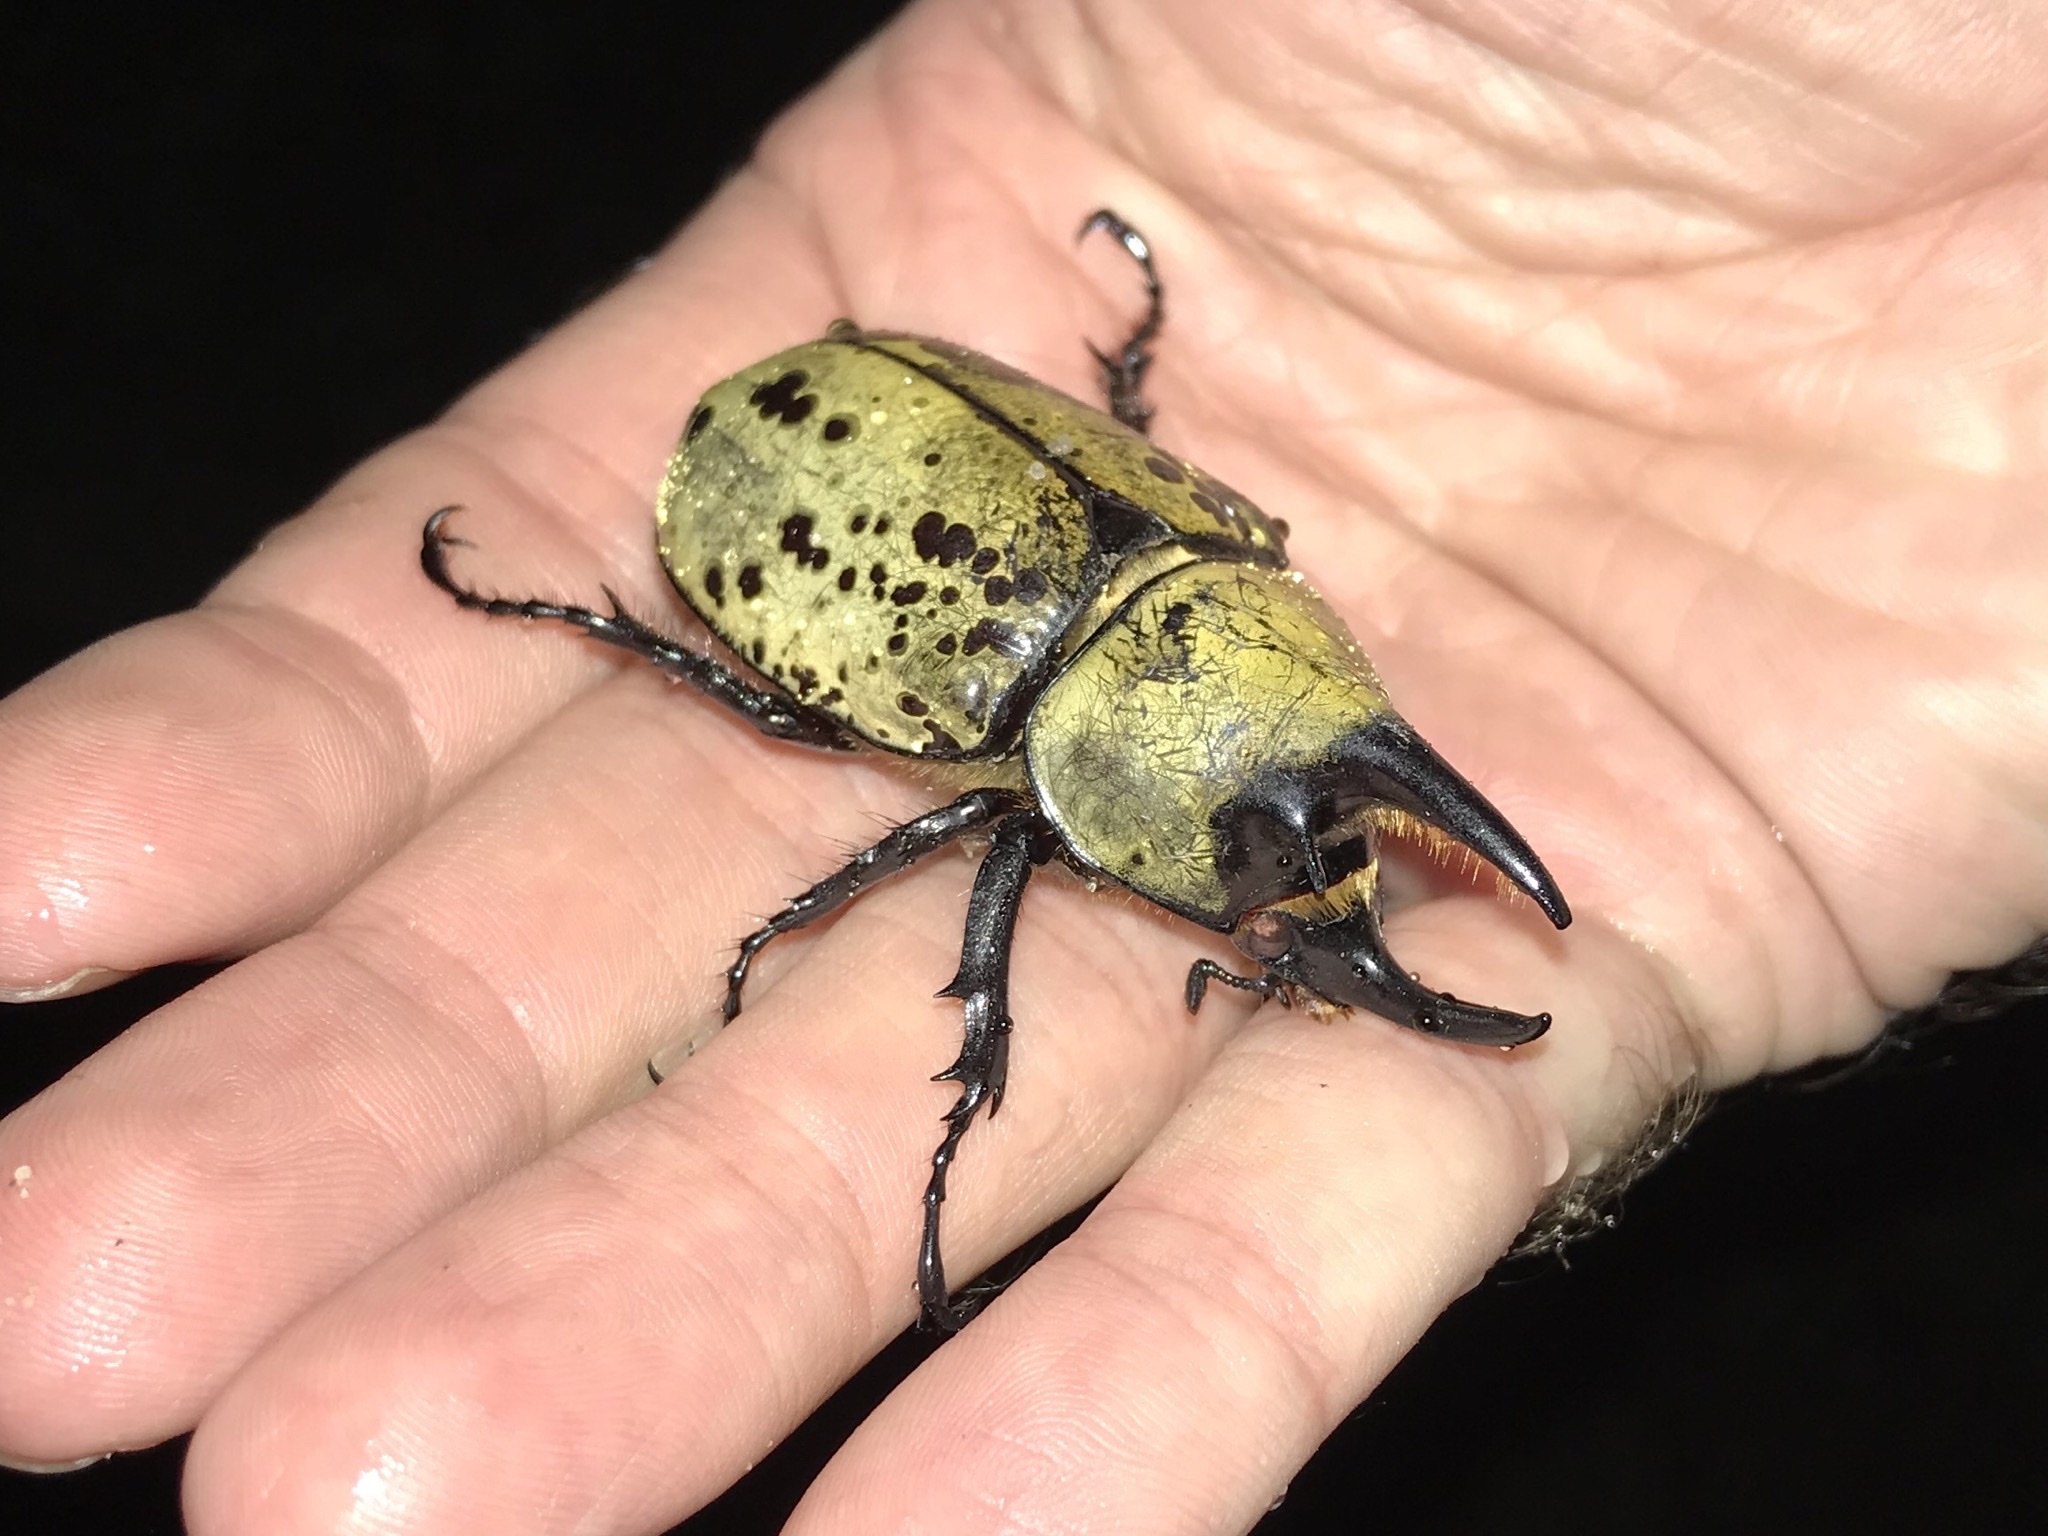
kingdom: Animalia
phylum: Arthropoda
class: Insecta
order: Coleoptera
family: Scarabaeidae
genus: Dynastes
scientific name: Dynastes tityus
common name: Eastern hercules beetle
